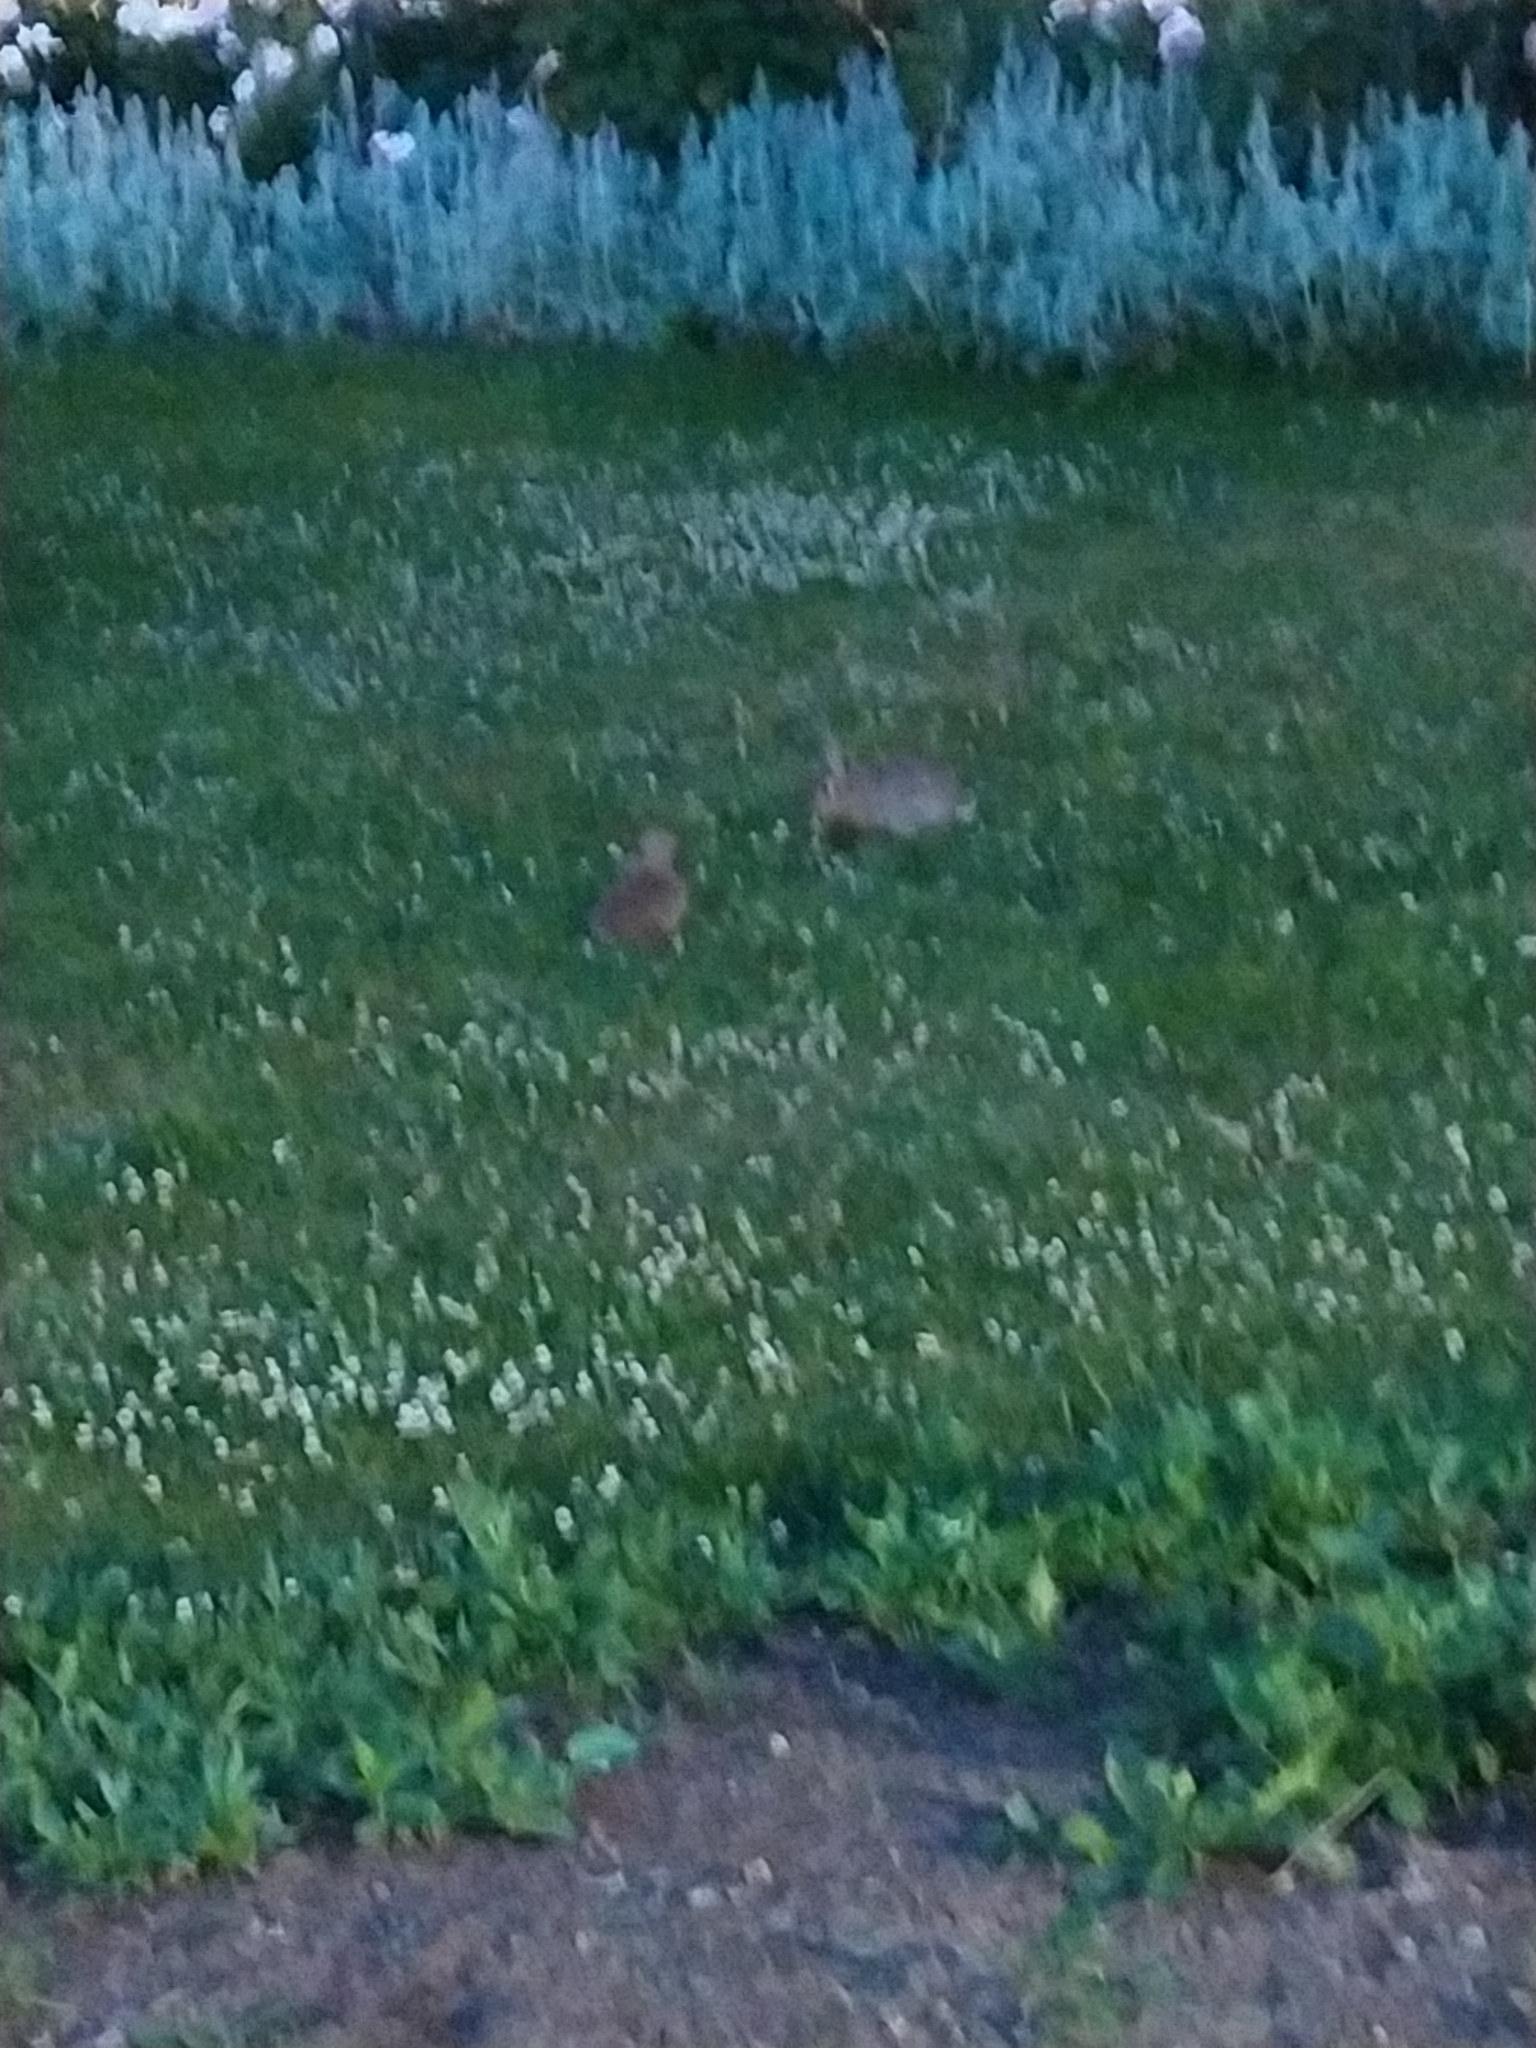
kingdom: Animalia
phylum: Chordata
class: Mammalia
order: Lagomorpha
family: Leporidae
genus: Oryctolagus
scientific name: Oryctolagus cuniculus
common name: European rabbit
